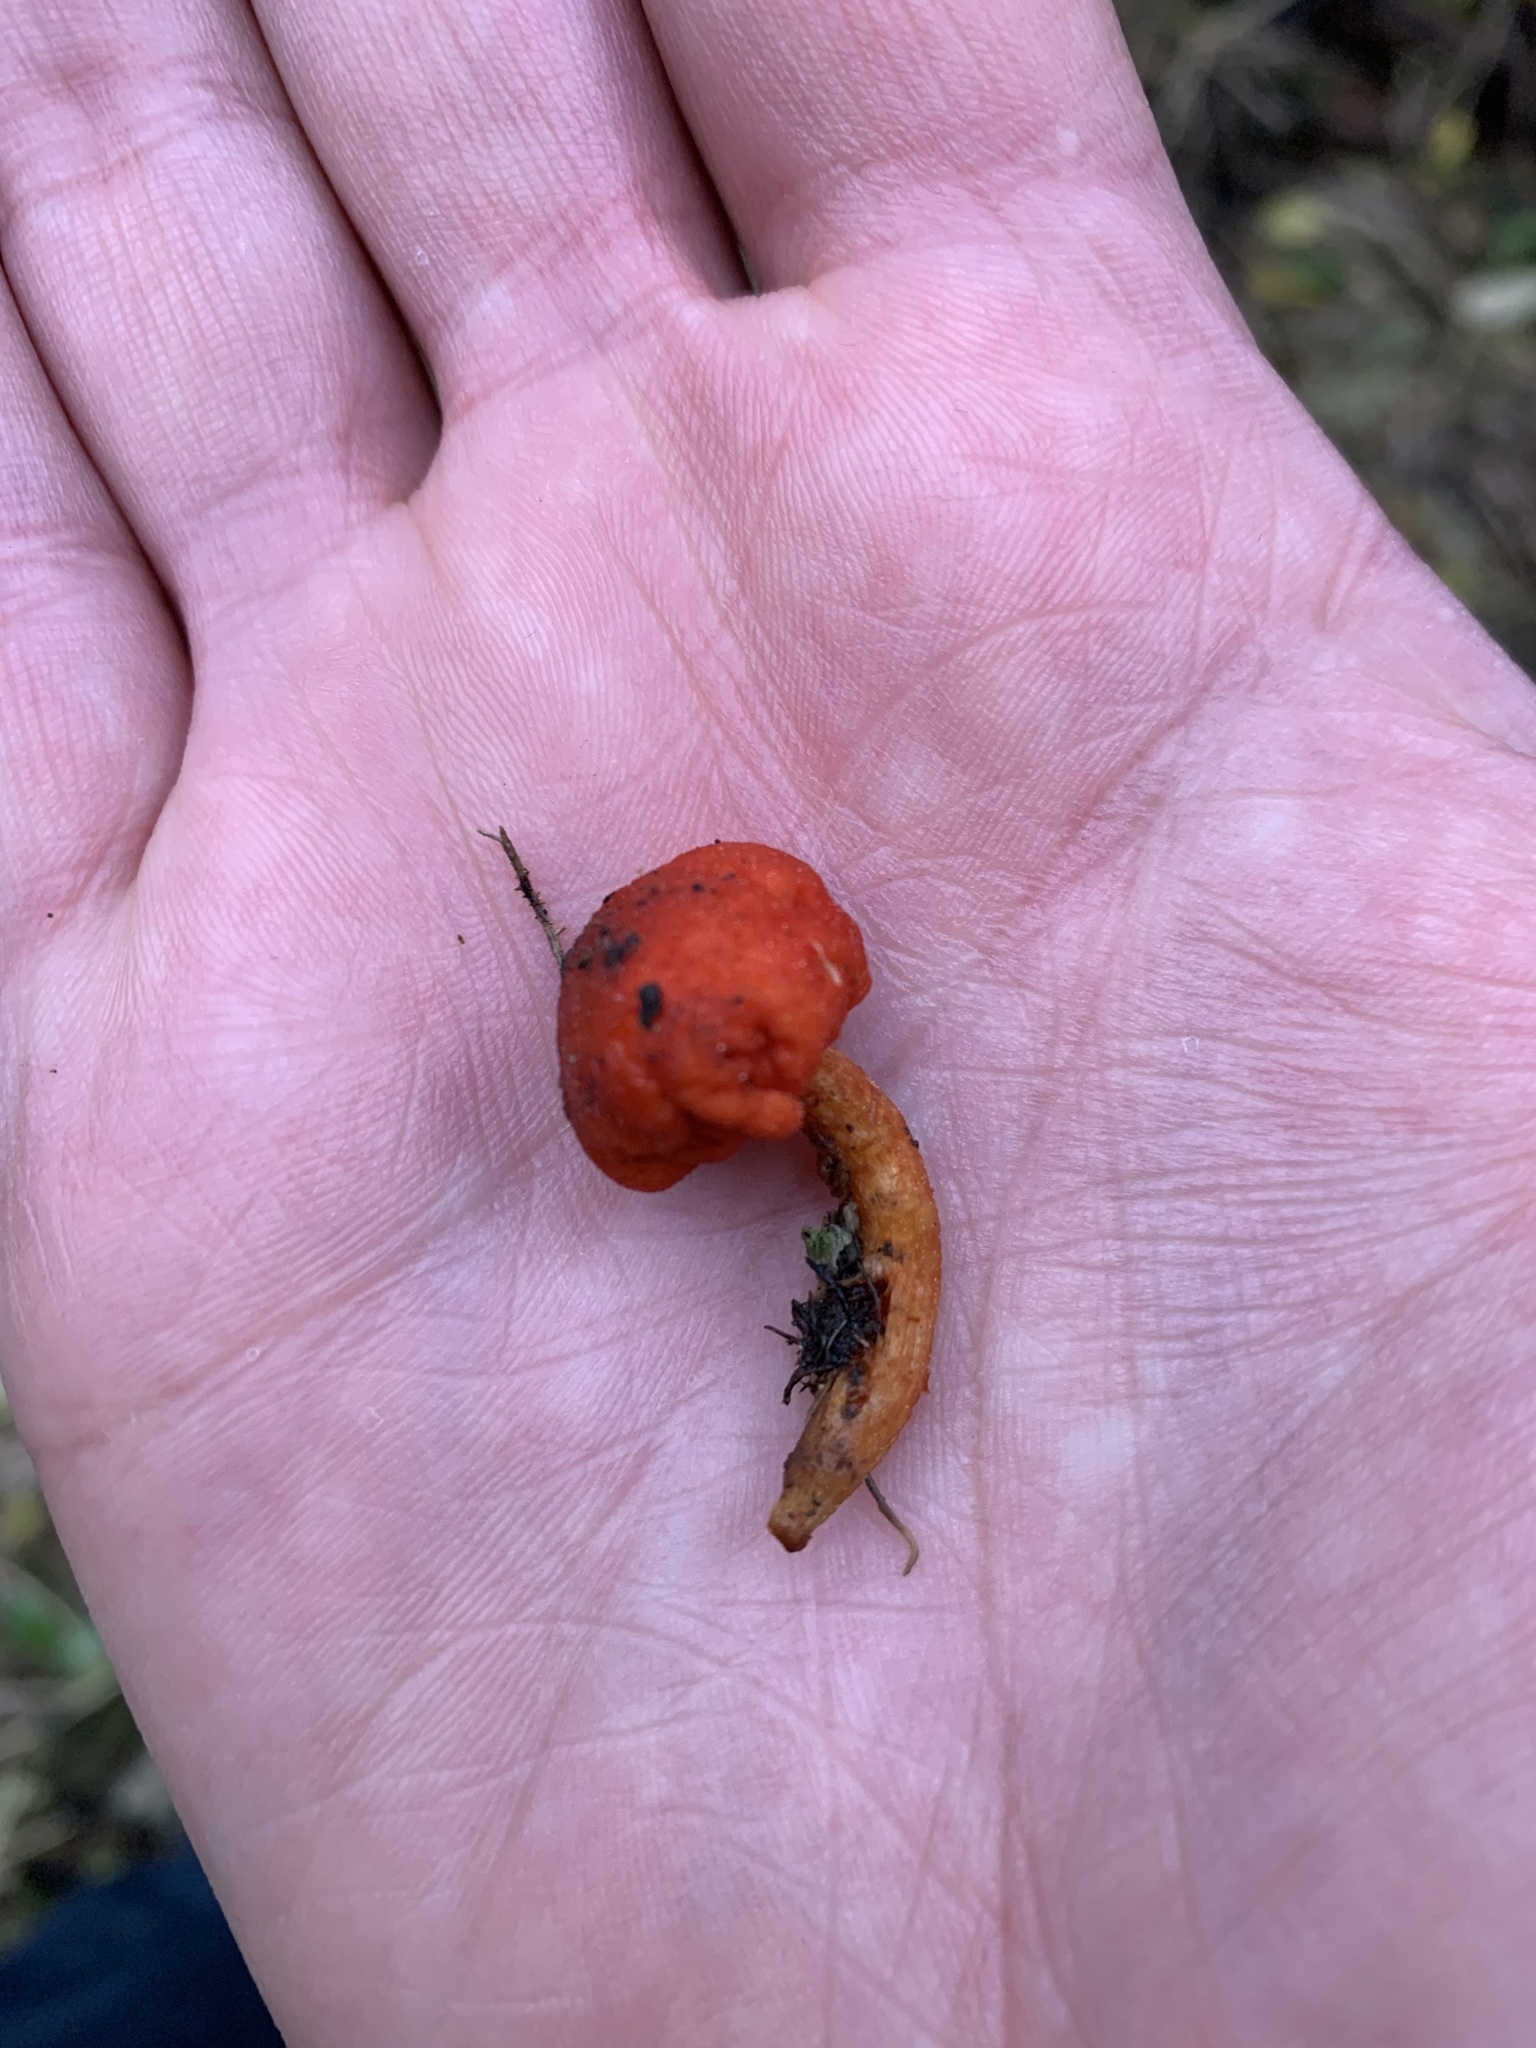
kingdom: Fungi
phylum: Basidiomycota
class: Agaricomycetes
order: Agaricales
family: Strophariaceae
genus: Leratiomyces
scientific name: Leratiomyces erythrocephalus
